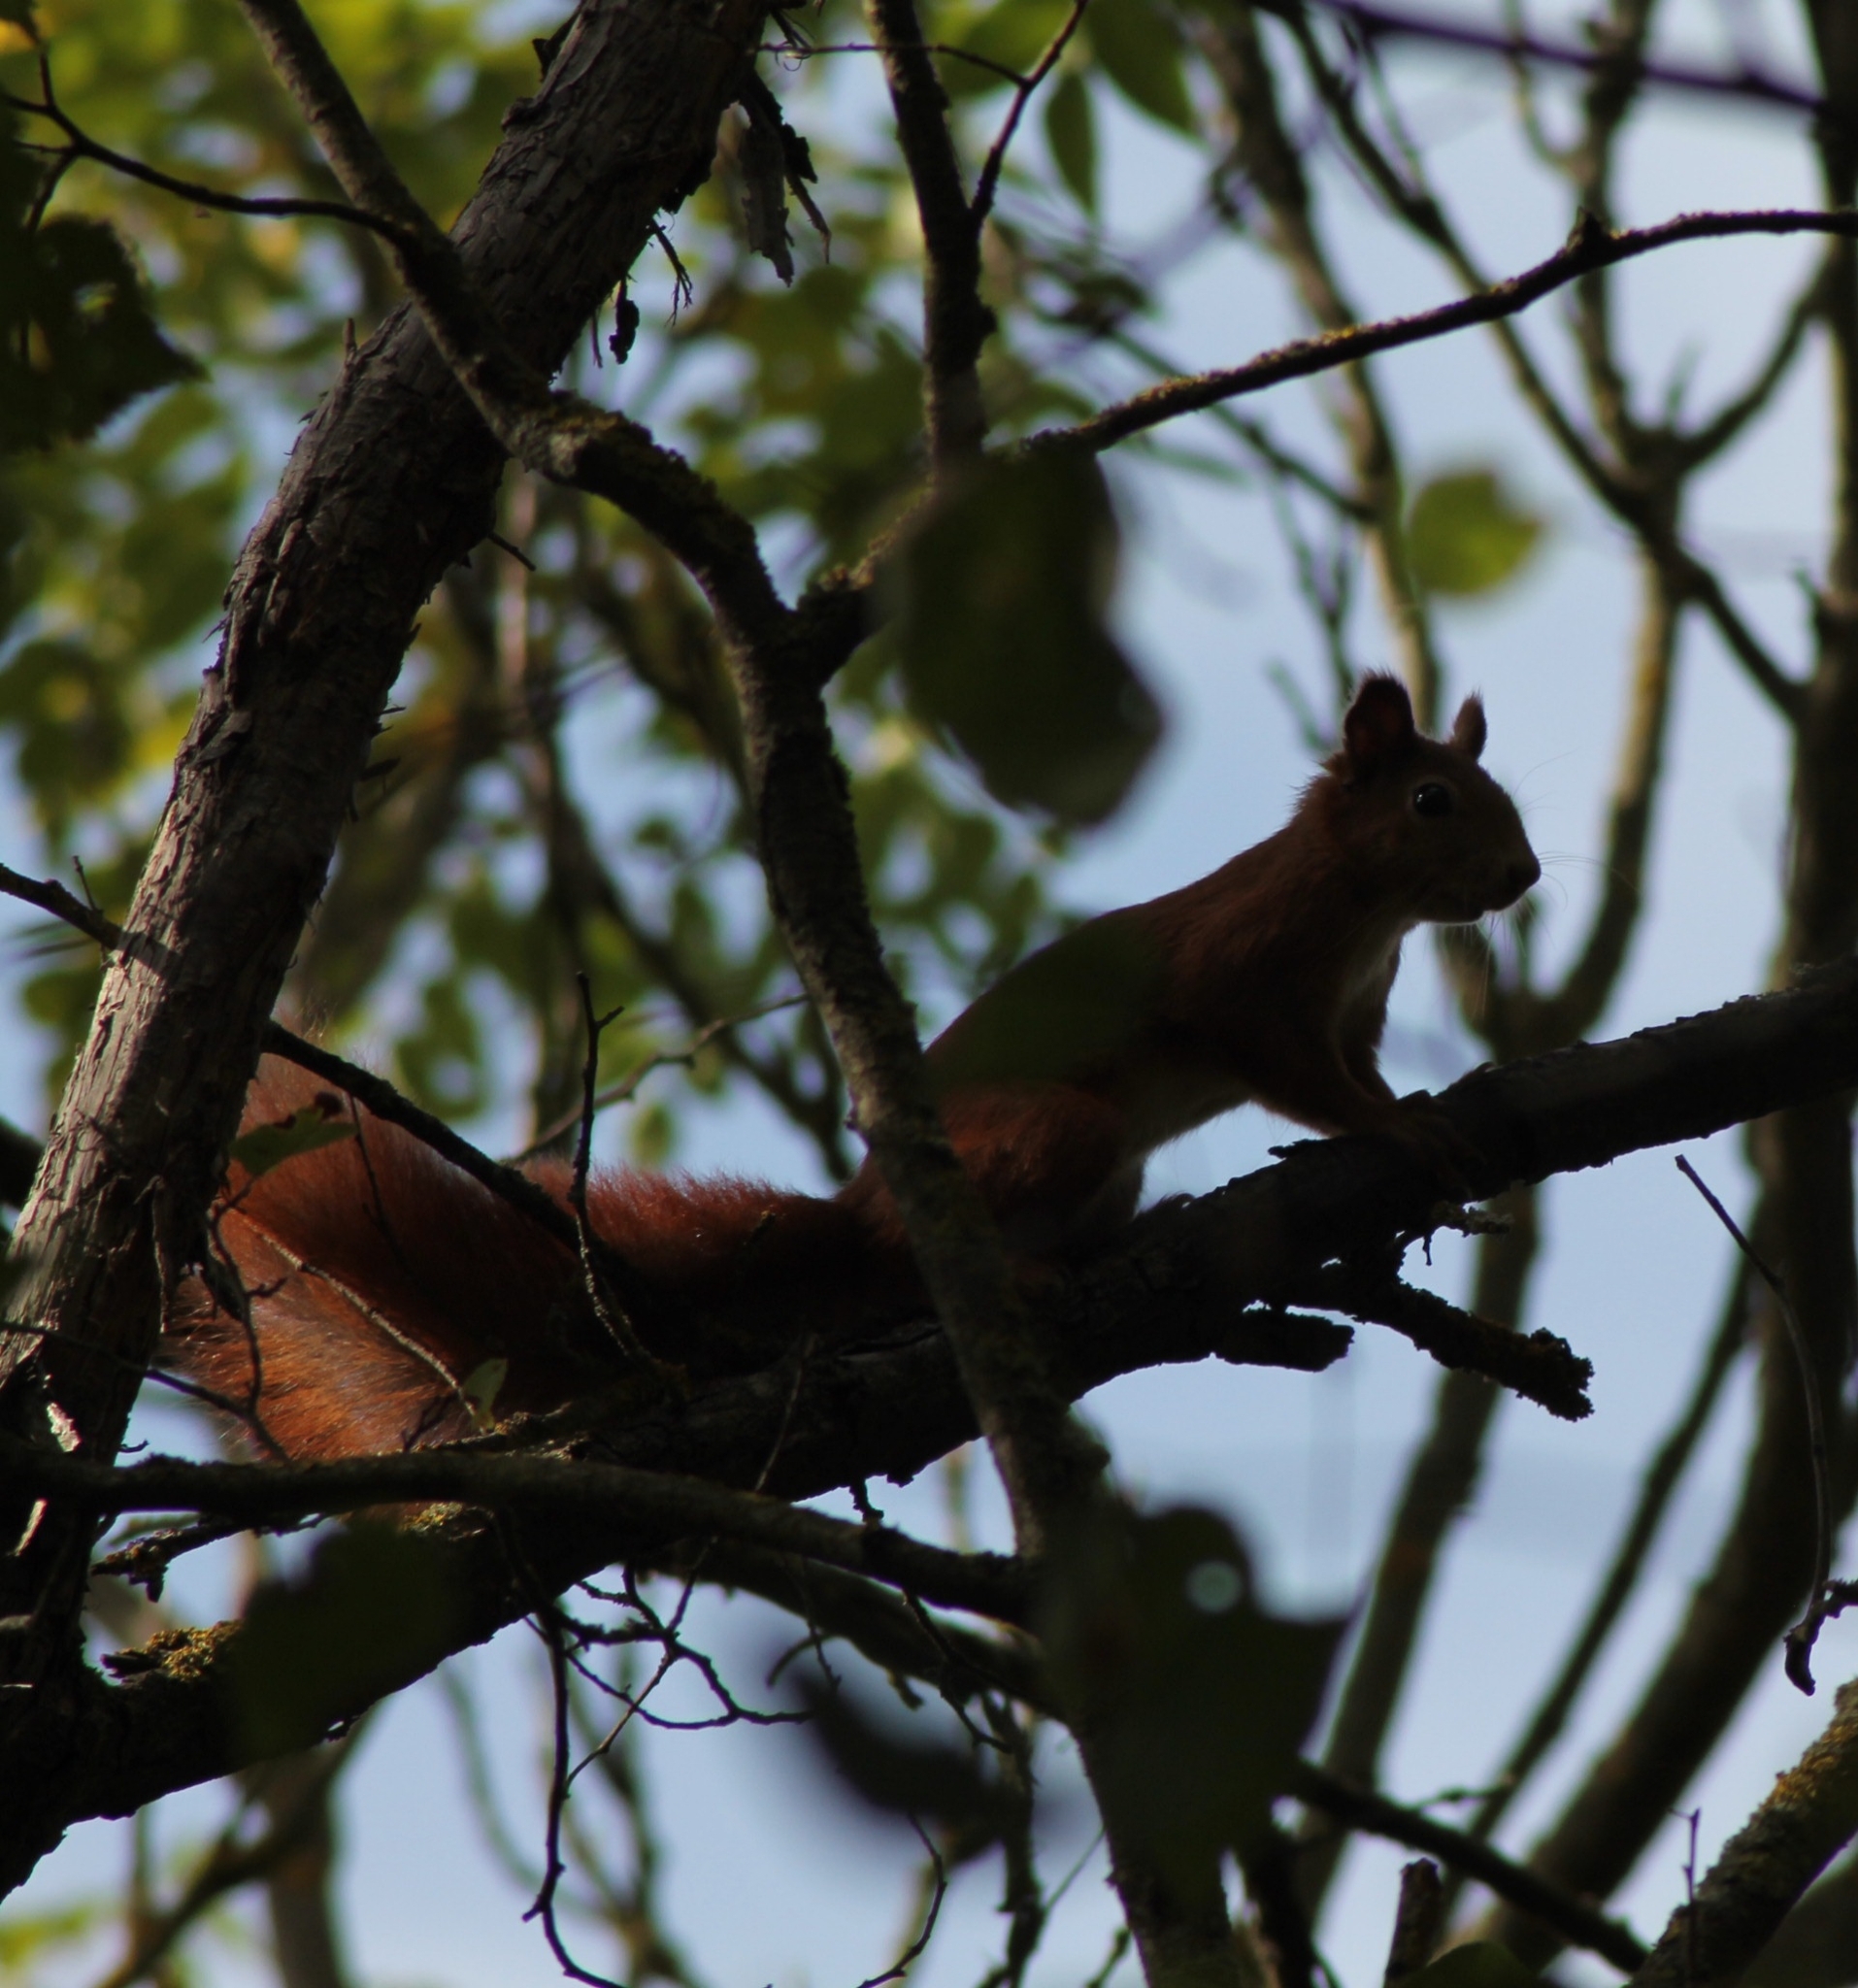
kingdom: Animalia
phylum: Chordata
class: Mammalia
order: Rodentia
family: Sciuridae
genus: Sciurus
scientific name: Sciurus vulgaris
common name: Eurasian red squirrel
